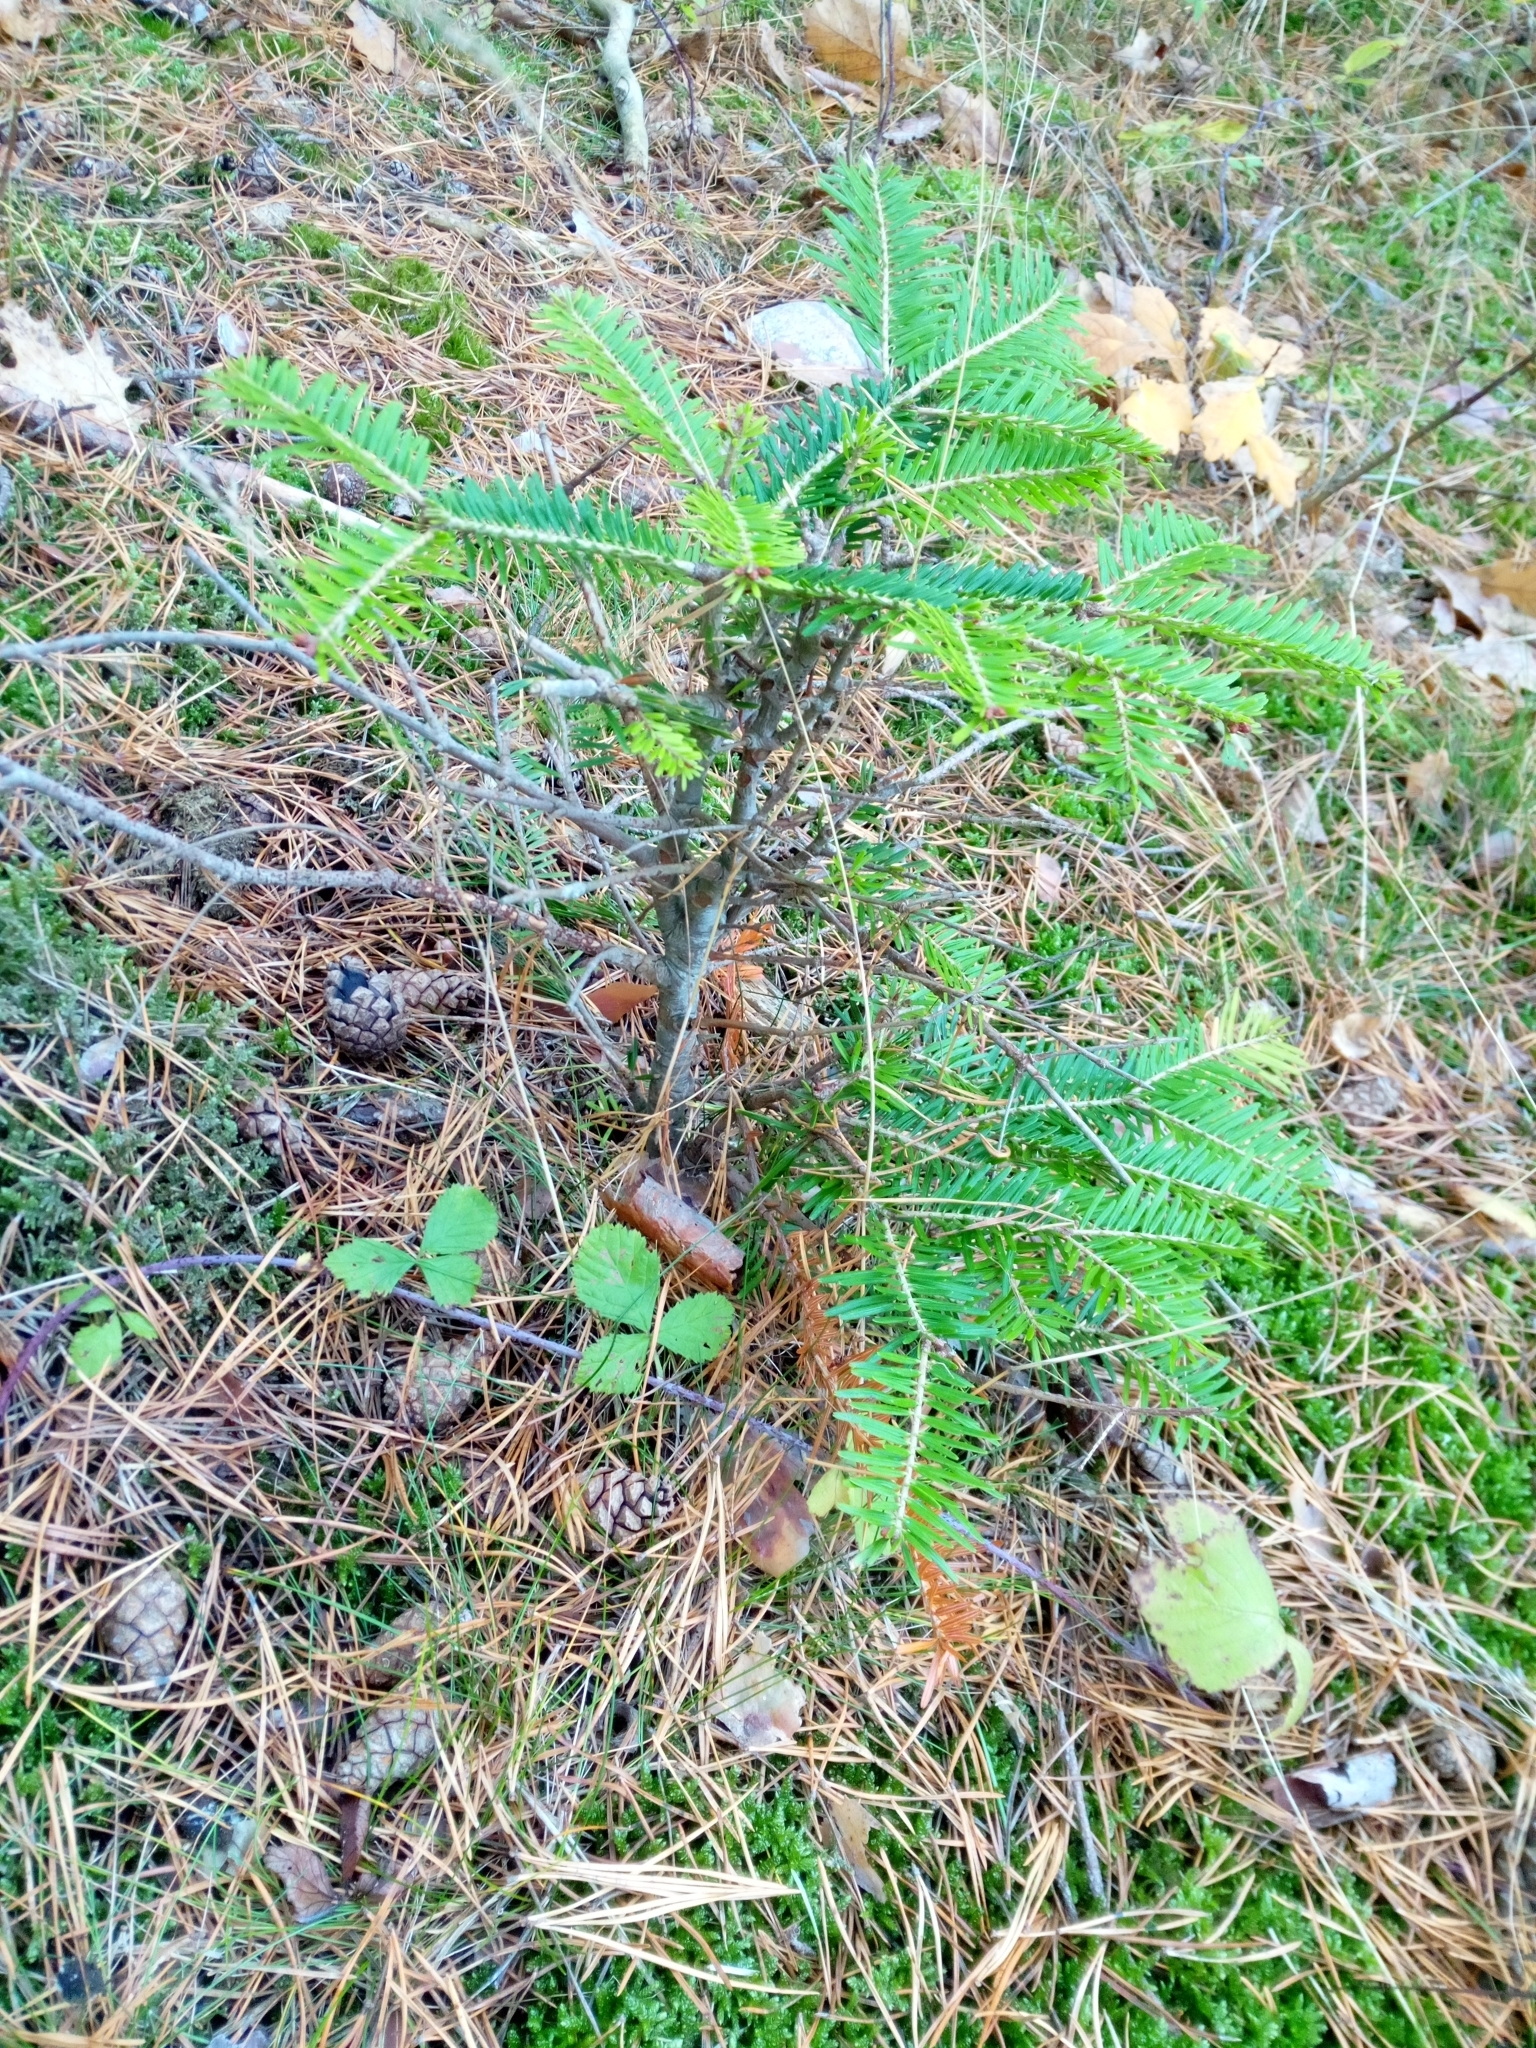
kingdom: Plantae
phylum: Tracheophyta
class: Pinopsida
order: Pinales
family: Pinaceae
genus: Abies
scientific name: Abies alba
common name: Silver fir
